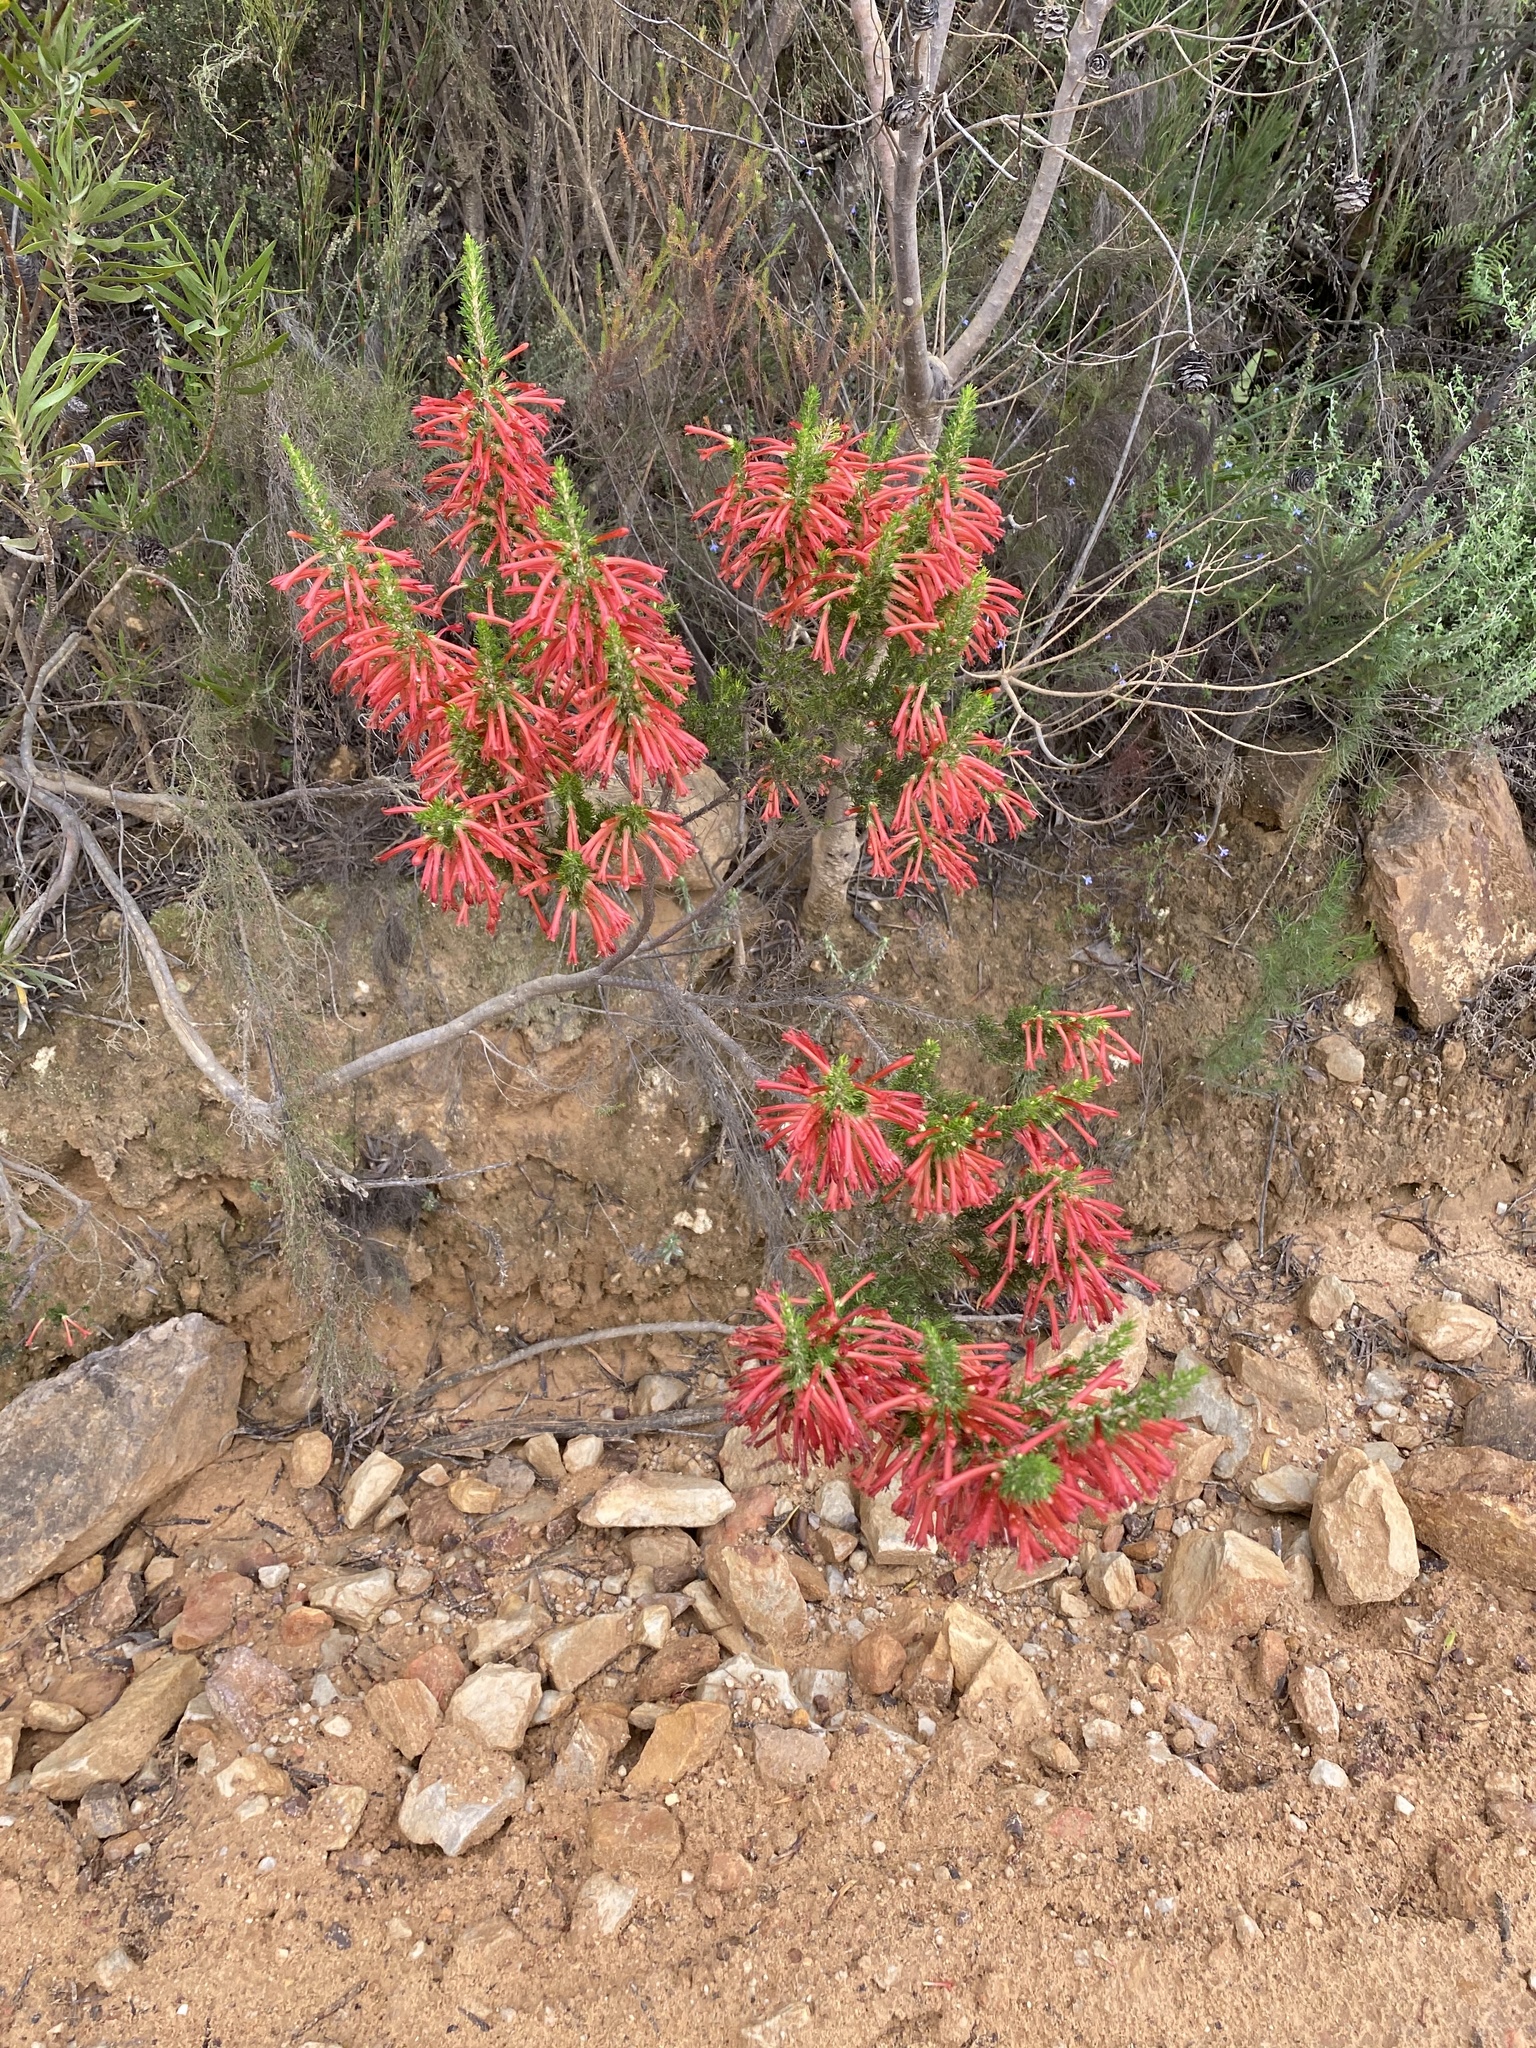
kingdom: Plantae
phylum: Tracheophyta
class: Magnoliopsida
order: Ericales
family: Ericaceae
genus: Erica
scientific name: Erica curviflora
